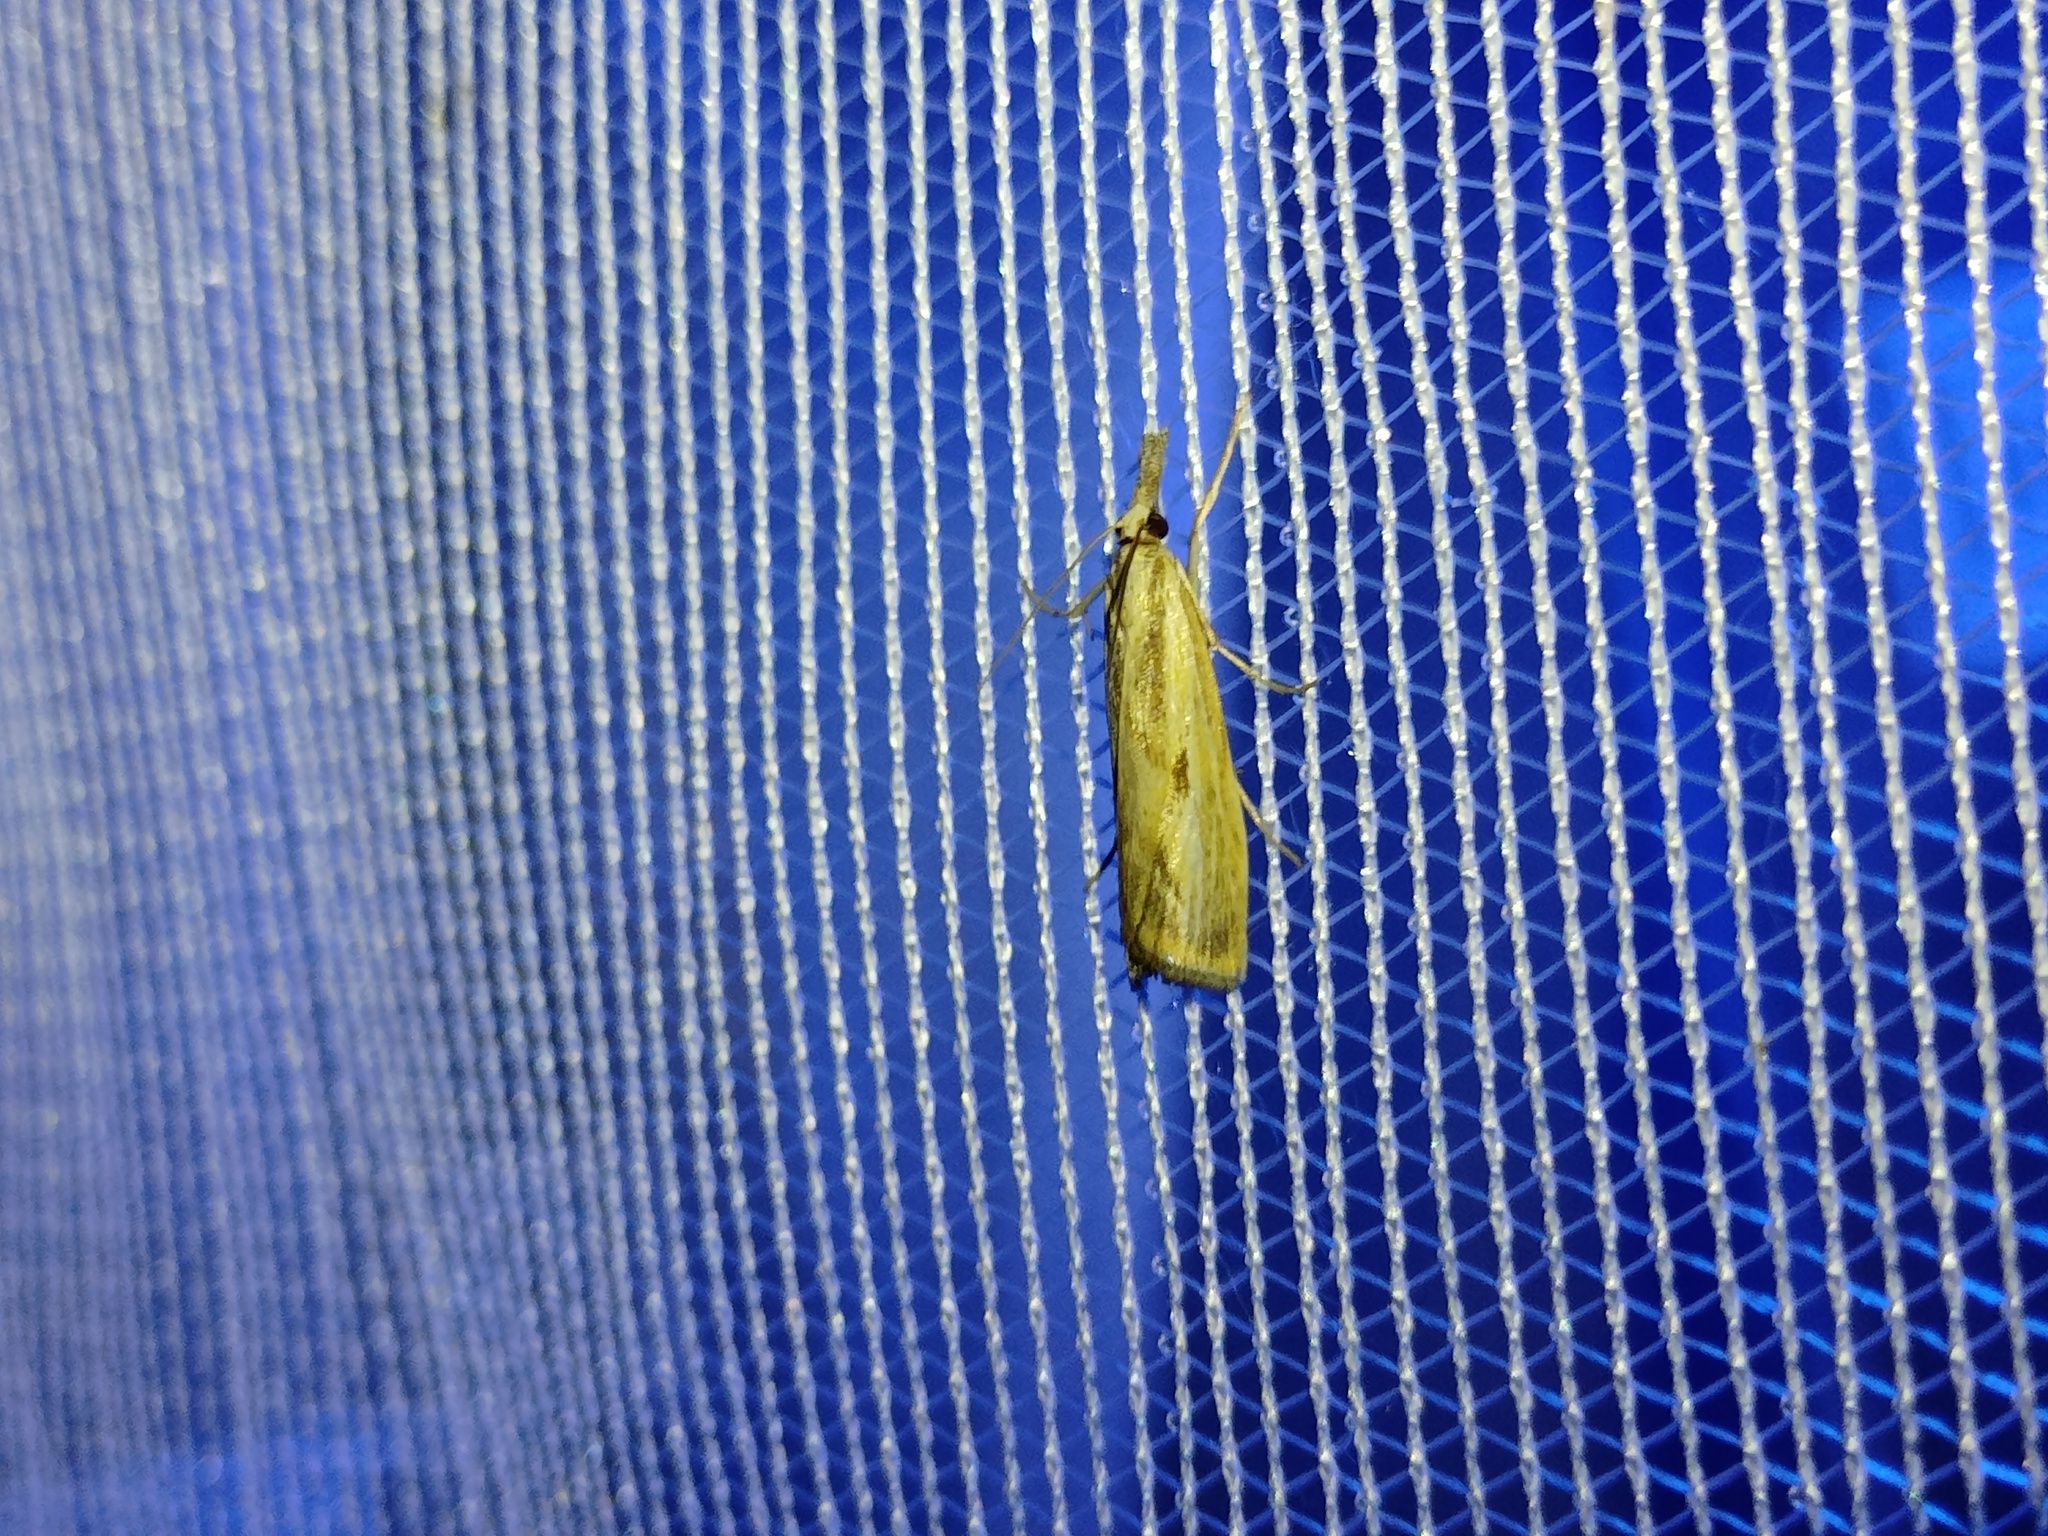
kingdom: Animalia
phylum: Arthropoda
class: Insecta
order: Lepidoptera
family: Crambidae
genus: Agriphila
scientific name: Agriphila inquinatella
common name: Barred grass-veneer
